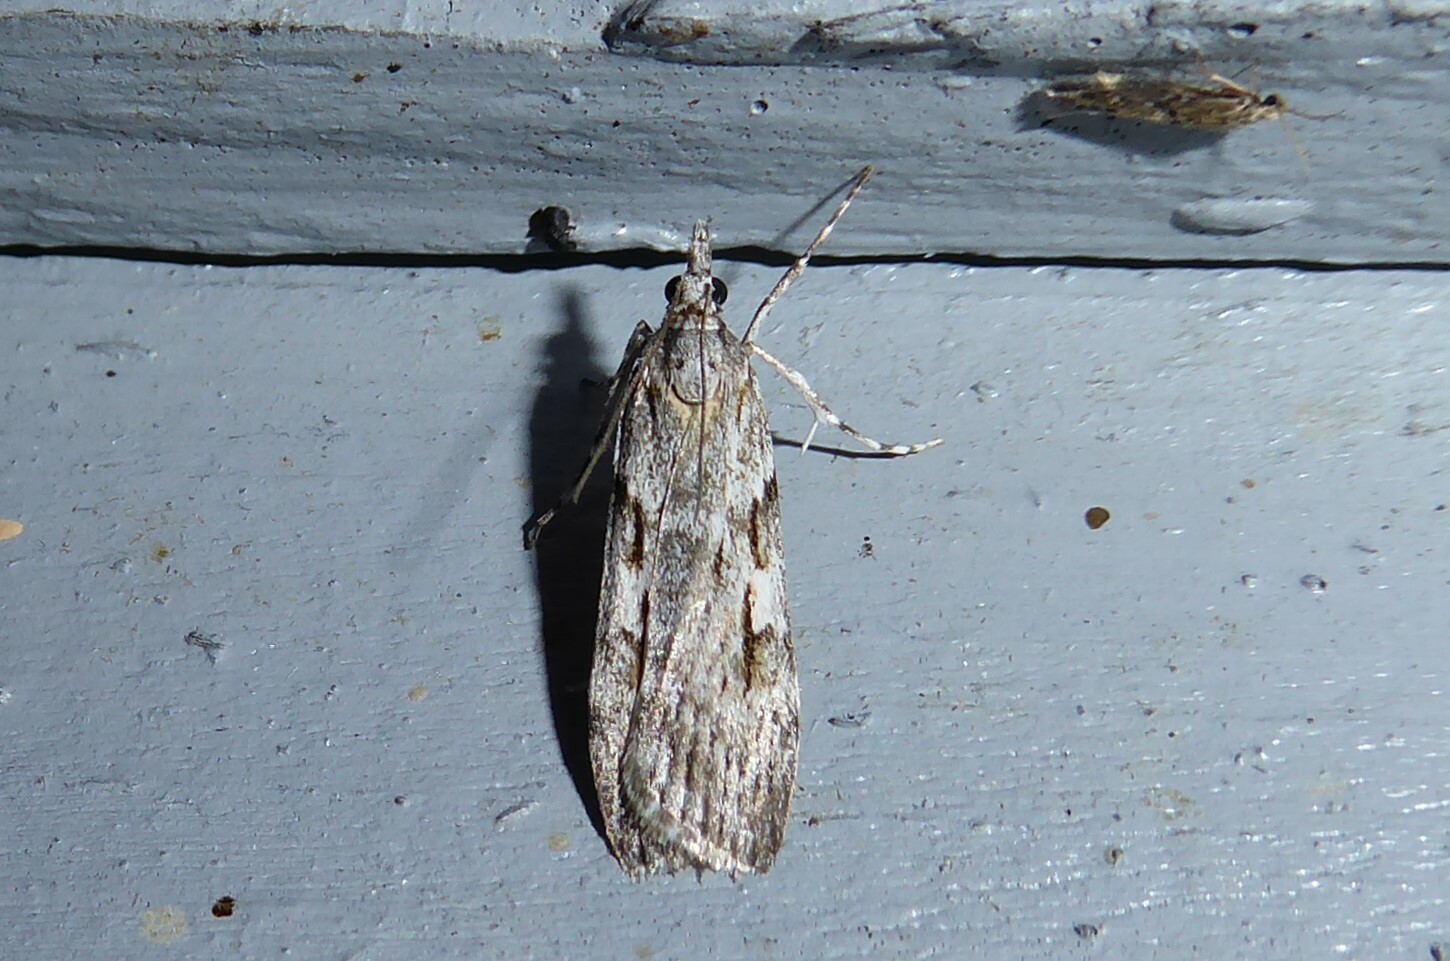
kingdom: Animalia
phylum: Arthropoda
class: Insecta
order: Lepidoptera
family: Crambidae
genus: Scoparia
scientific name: Scoparia halopis
